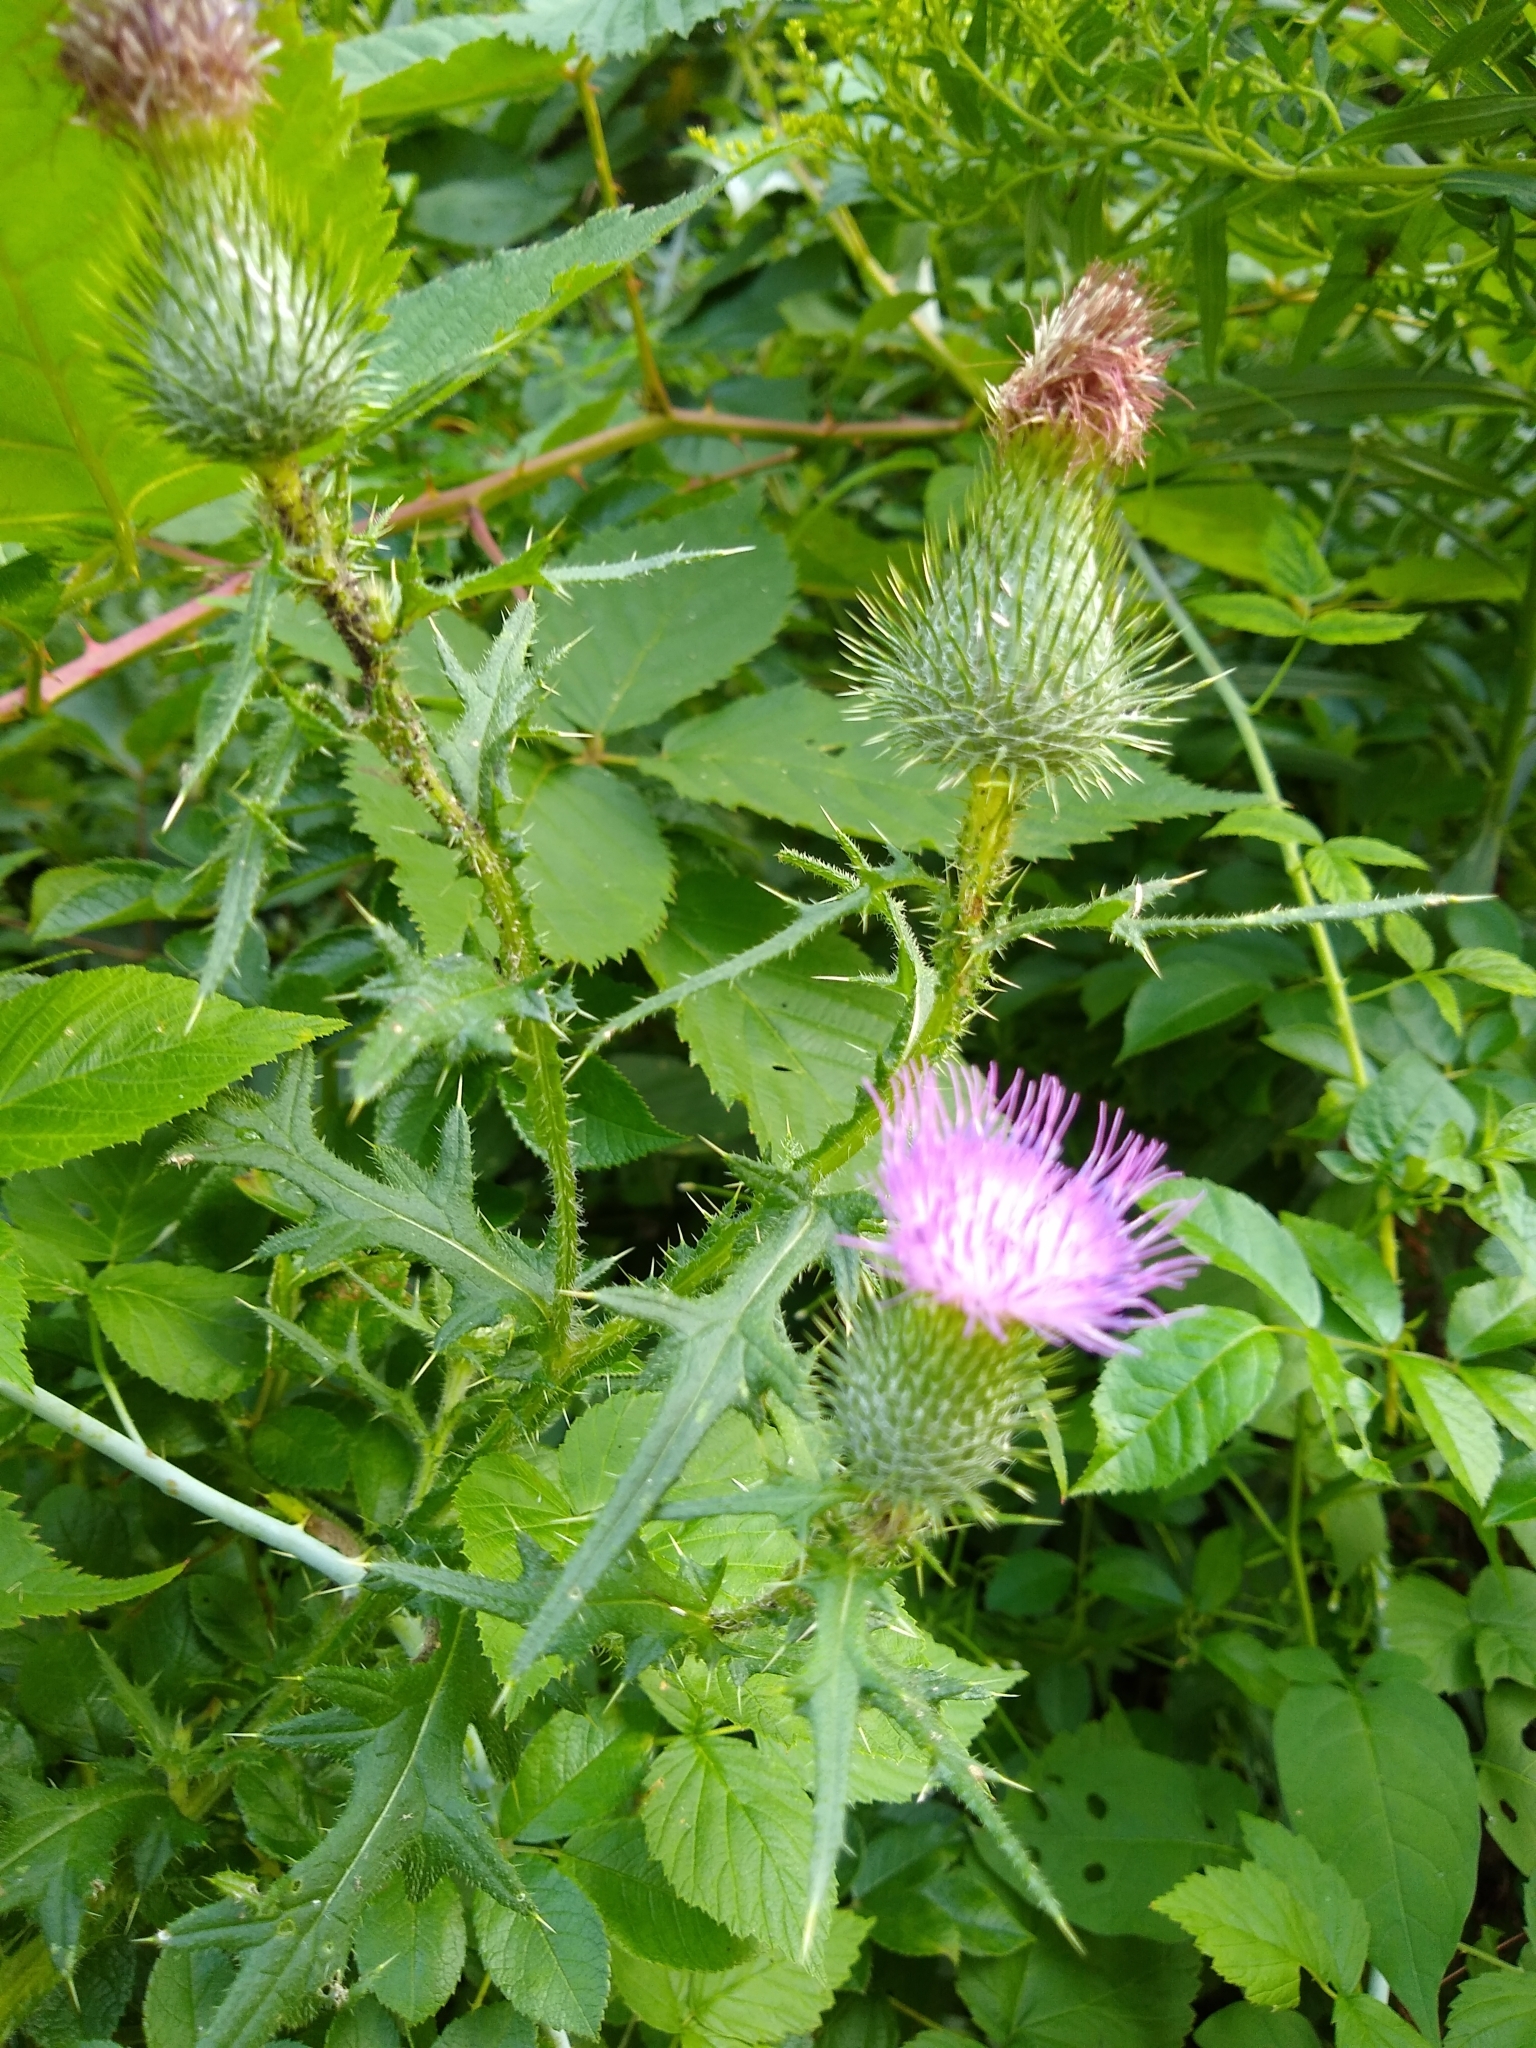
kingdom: Plantae
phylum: Tracheophyta
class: Magnoliopsida
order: Asterales
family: Asteraceae
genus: Cirsium
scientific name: Cirsium vulgare
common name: Bull thistle
